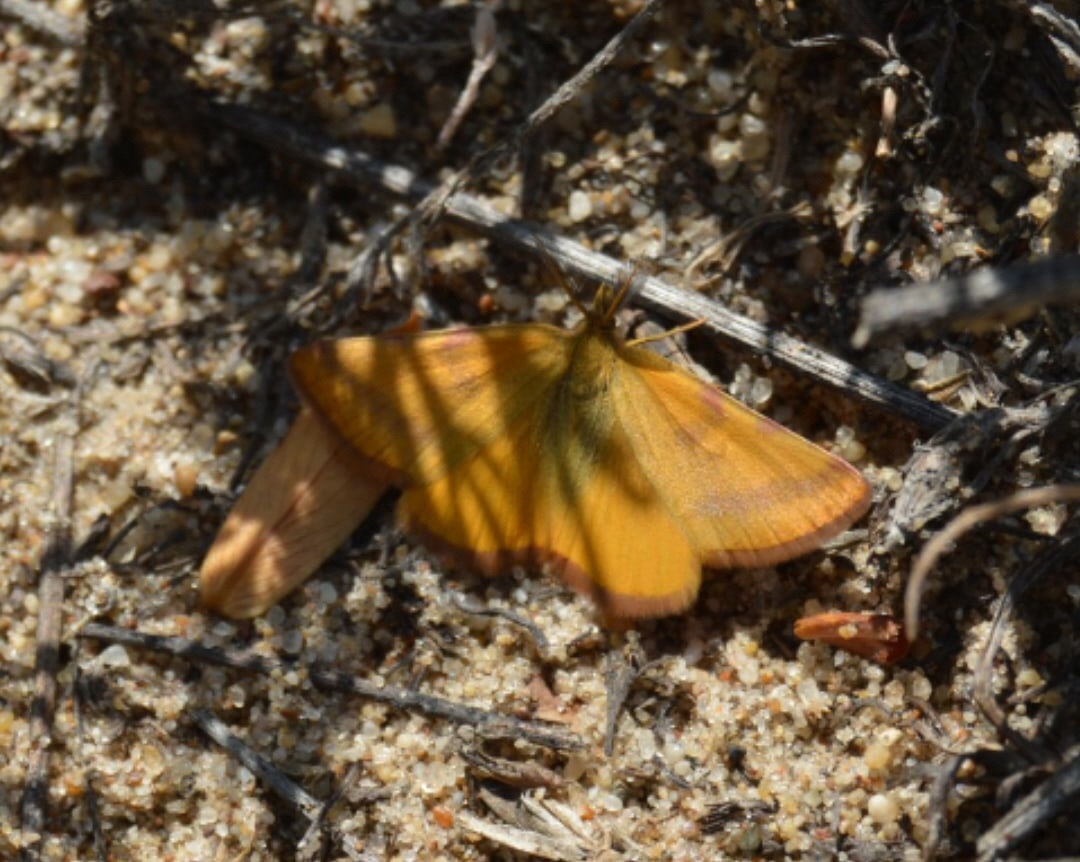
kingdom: Animalia
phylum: Arthropoda
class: Insecta
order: Lepidoptera
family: Geometridae
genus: Lythria
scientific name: Lythria purpuraria
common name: Purple-barred yellow
